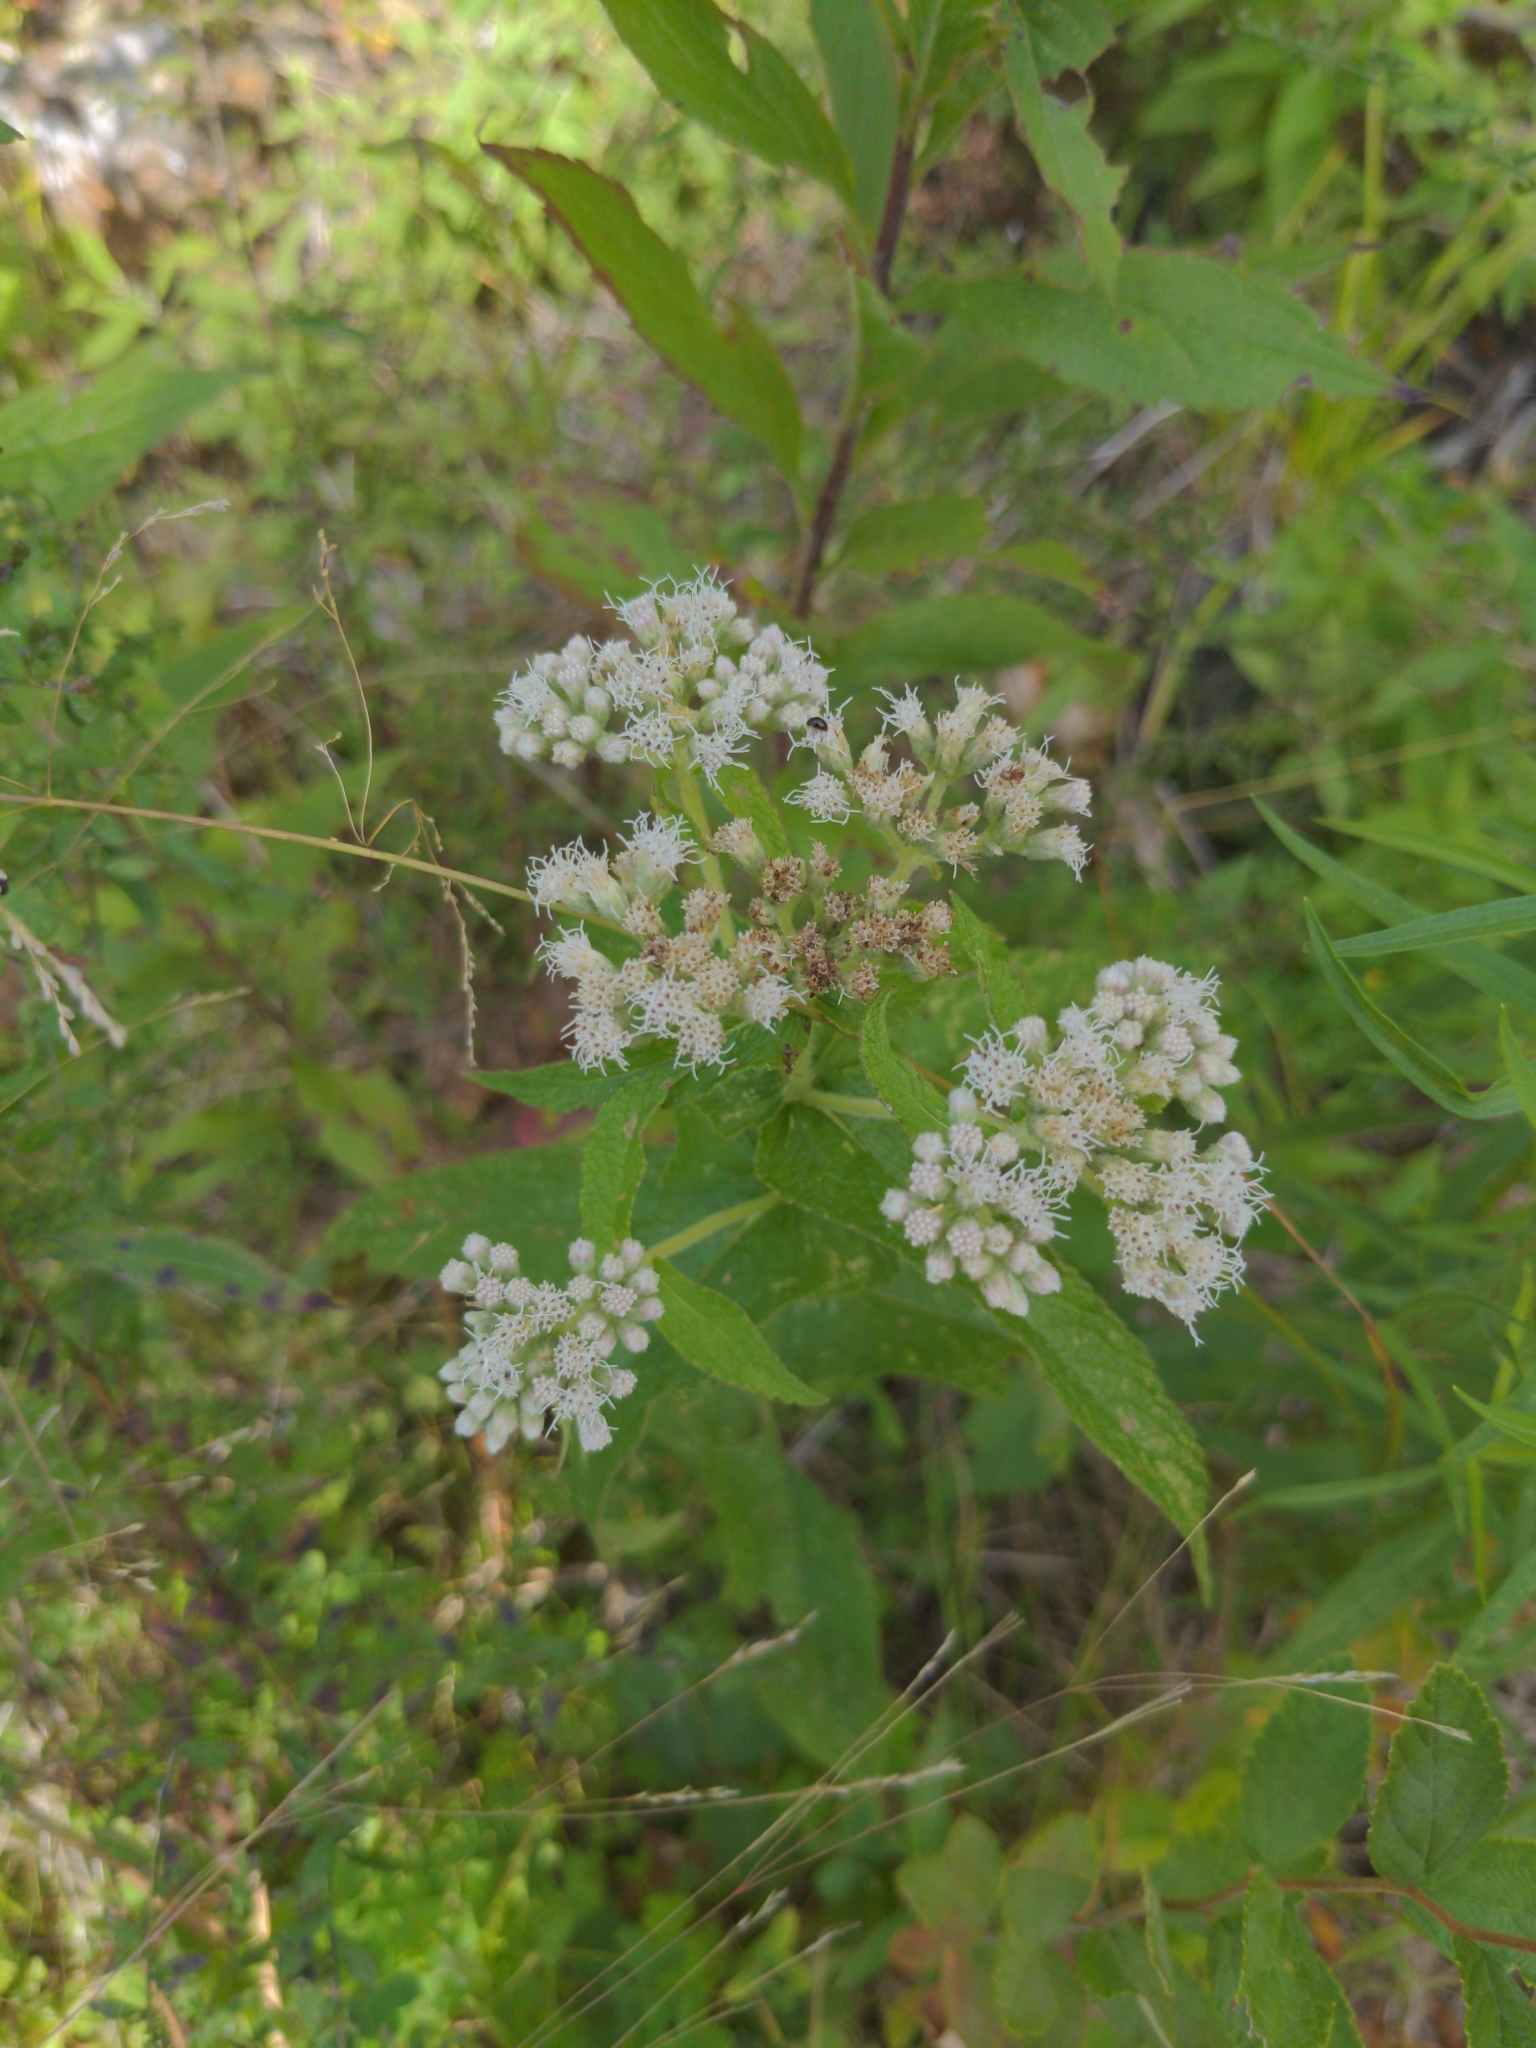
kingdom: Plantae
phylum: Tracheophyta
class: Magnoliopsida
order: Asterales
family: Asteraceae
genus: Eupatorium
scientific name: Eupatorium perfoliatum
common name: Boneset
